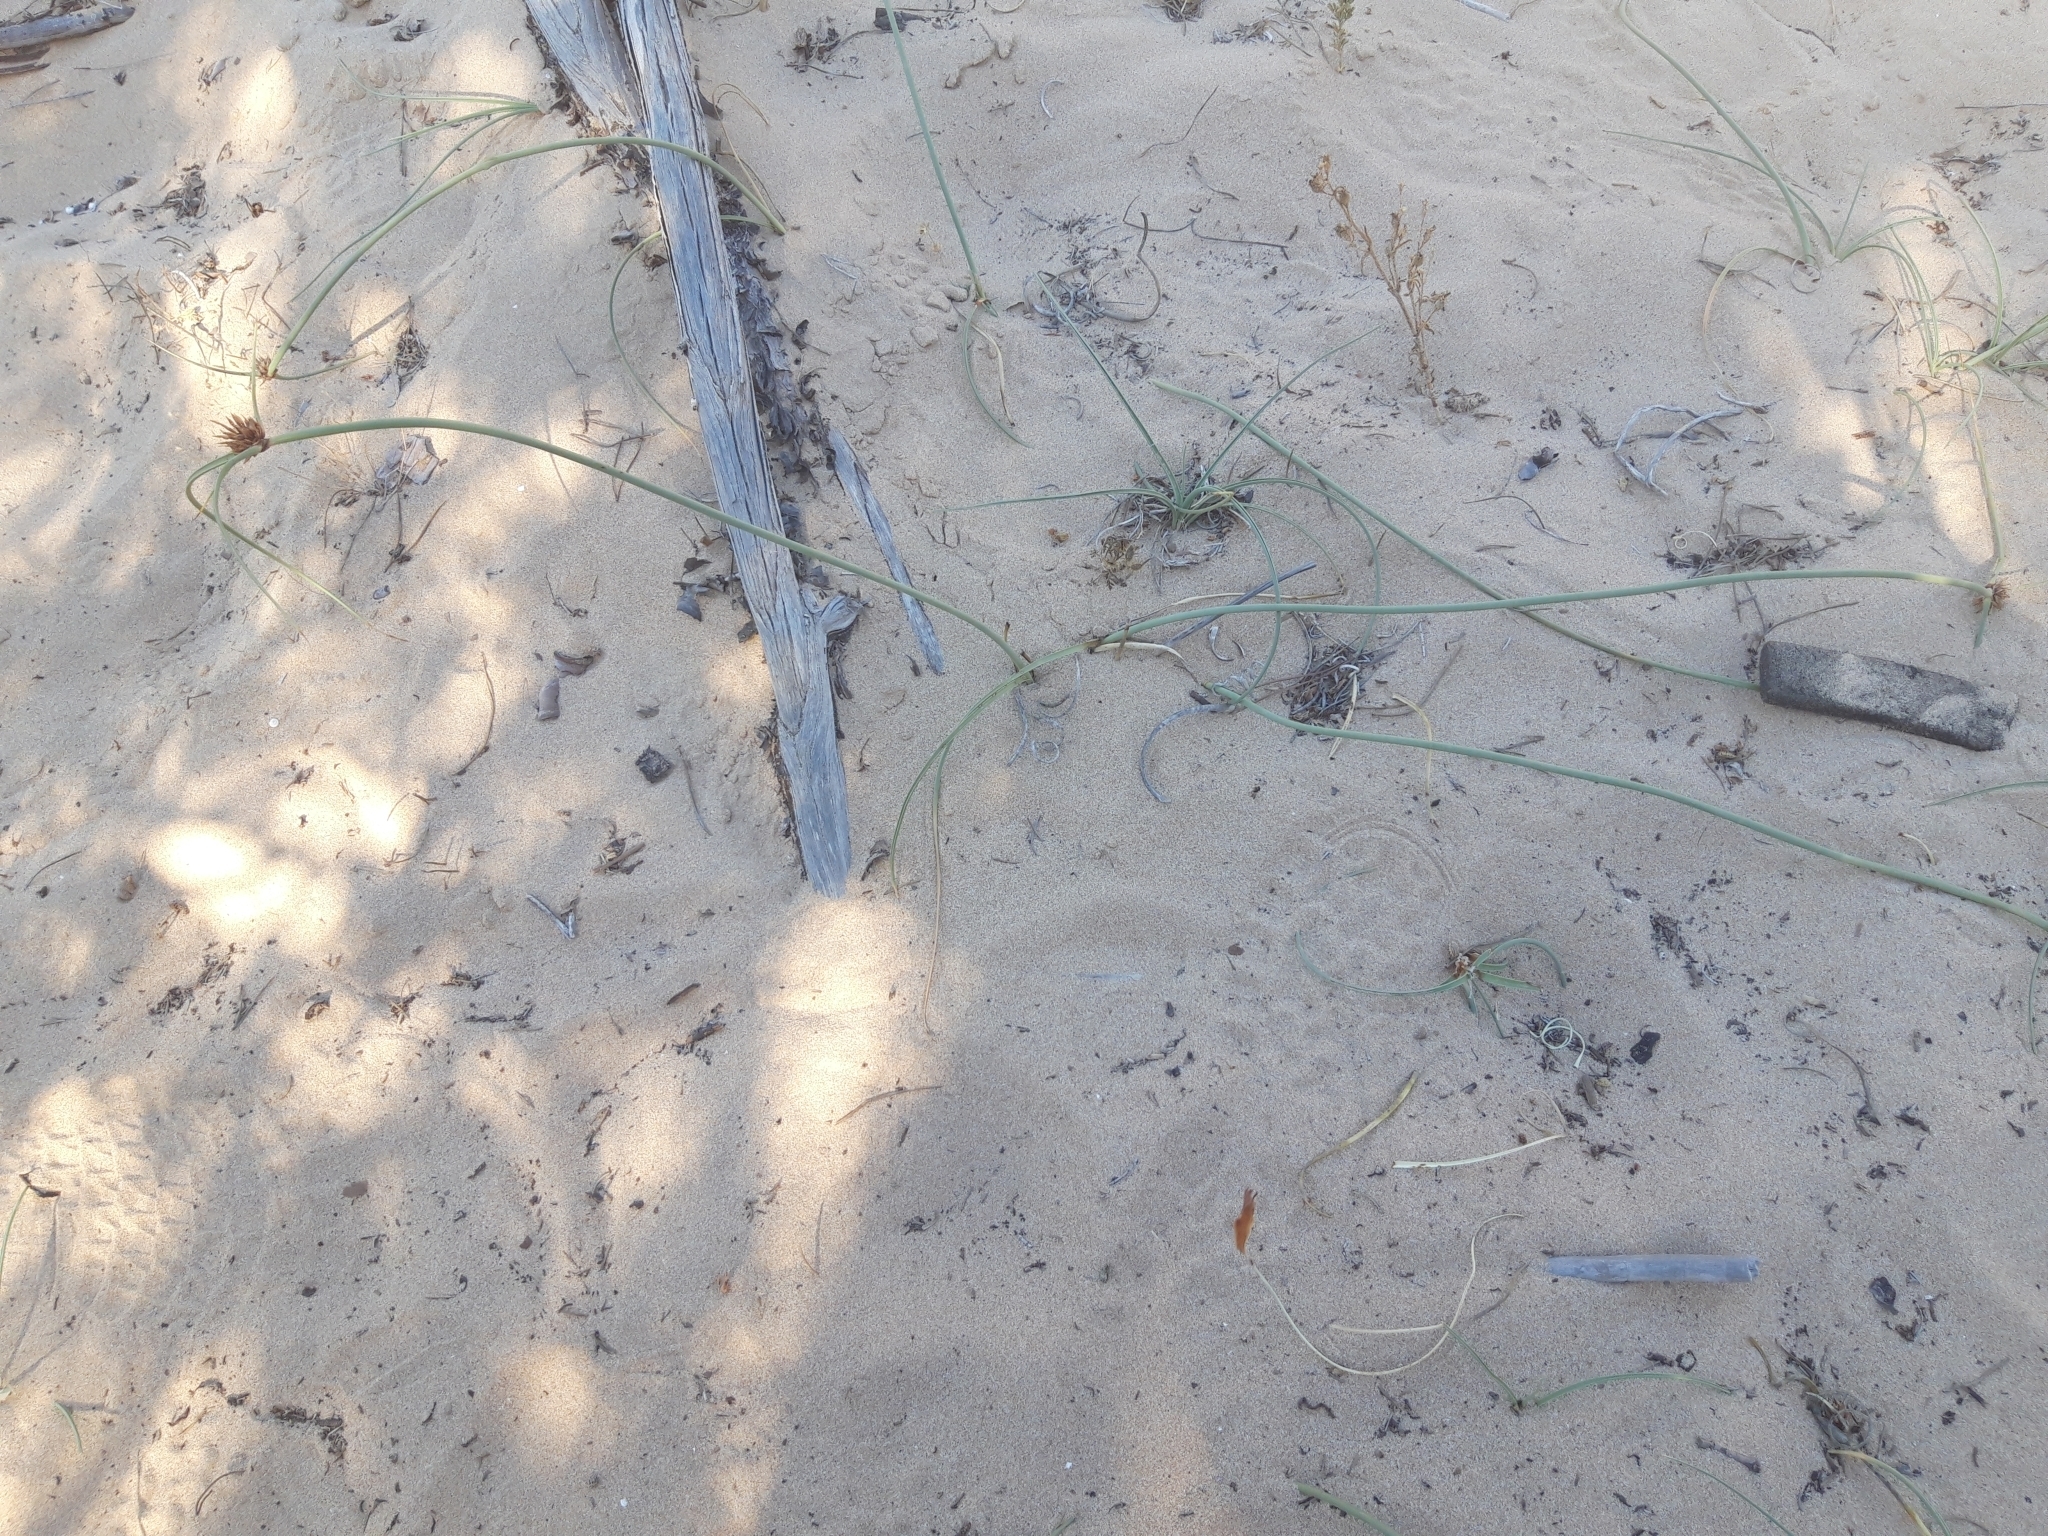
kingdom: Plantae
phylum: Tracheophyta
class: Liliopsida
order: Poales
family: Cyperaceae
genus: Cyperus
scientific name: Cyperus capitatus
